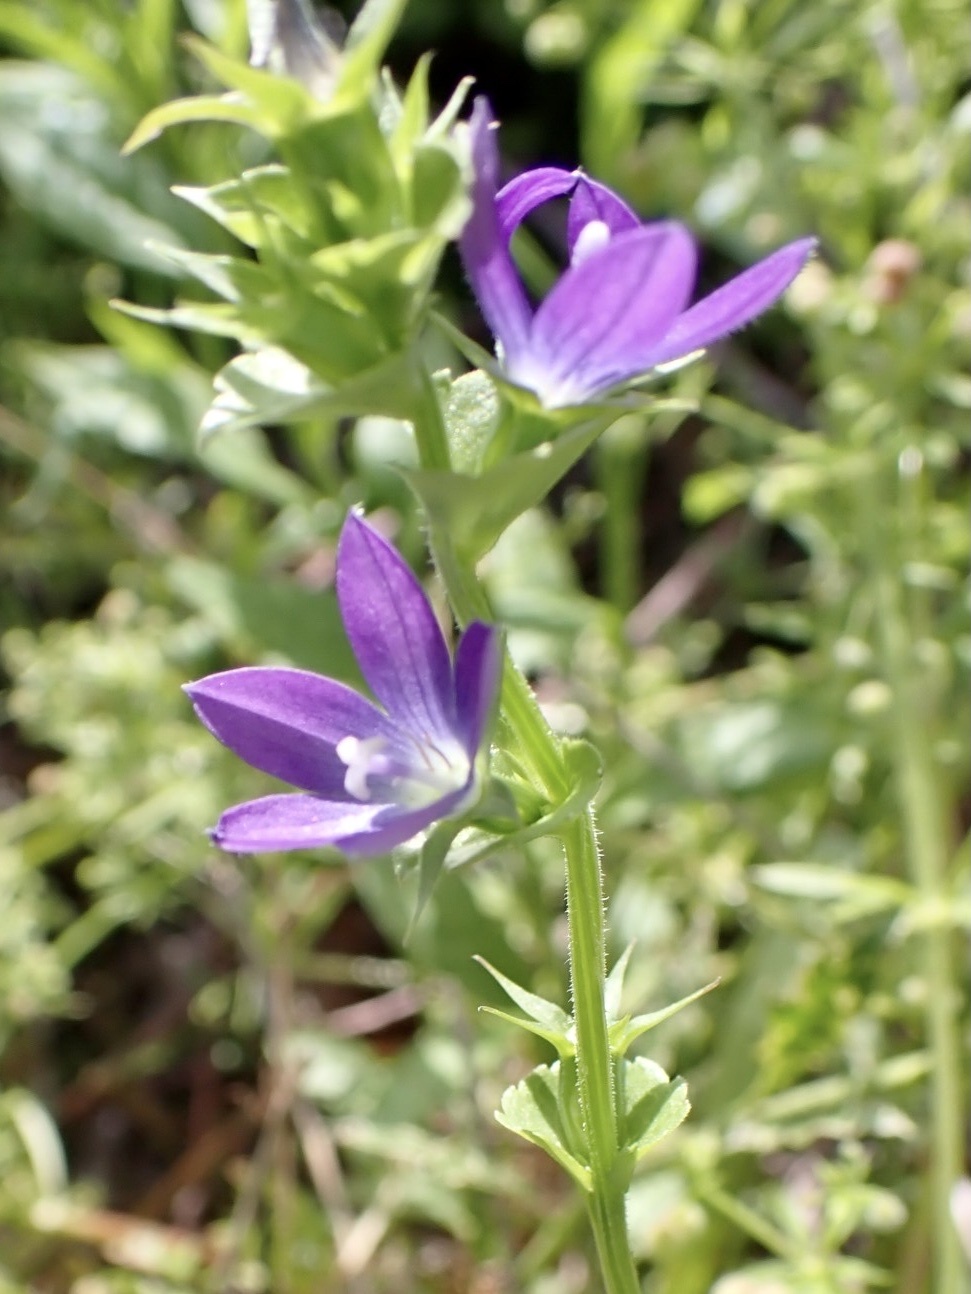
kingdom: Plantae
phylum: Tracheophyta
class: Magnoliopsida
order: Asterales
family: Campanulaceae
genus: Triodanis
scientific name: Triodanis perfoliata
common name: Clasping venus' looking-glass
